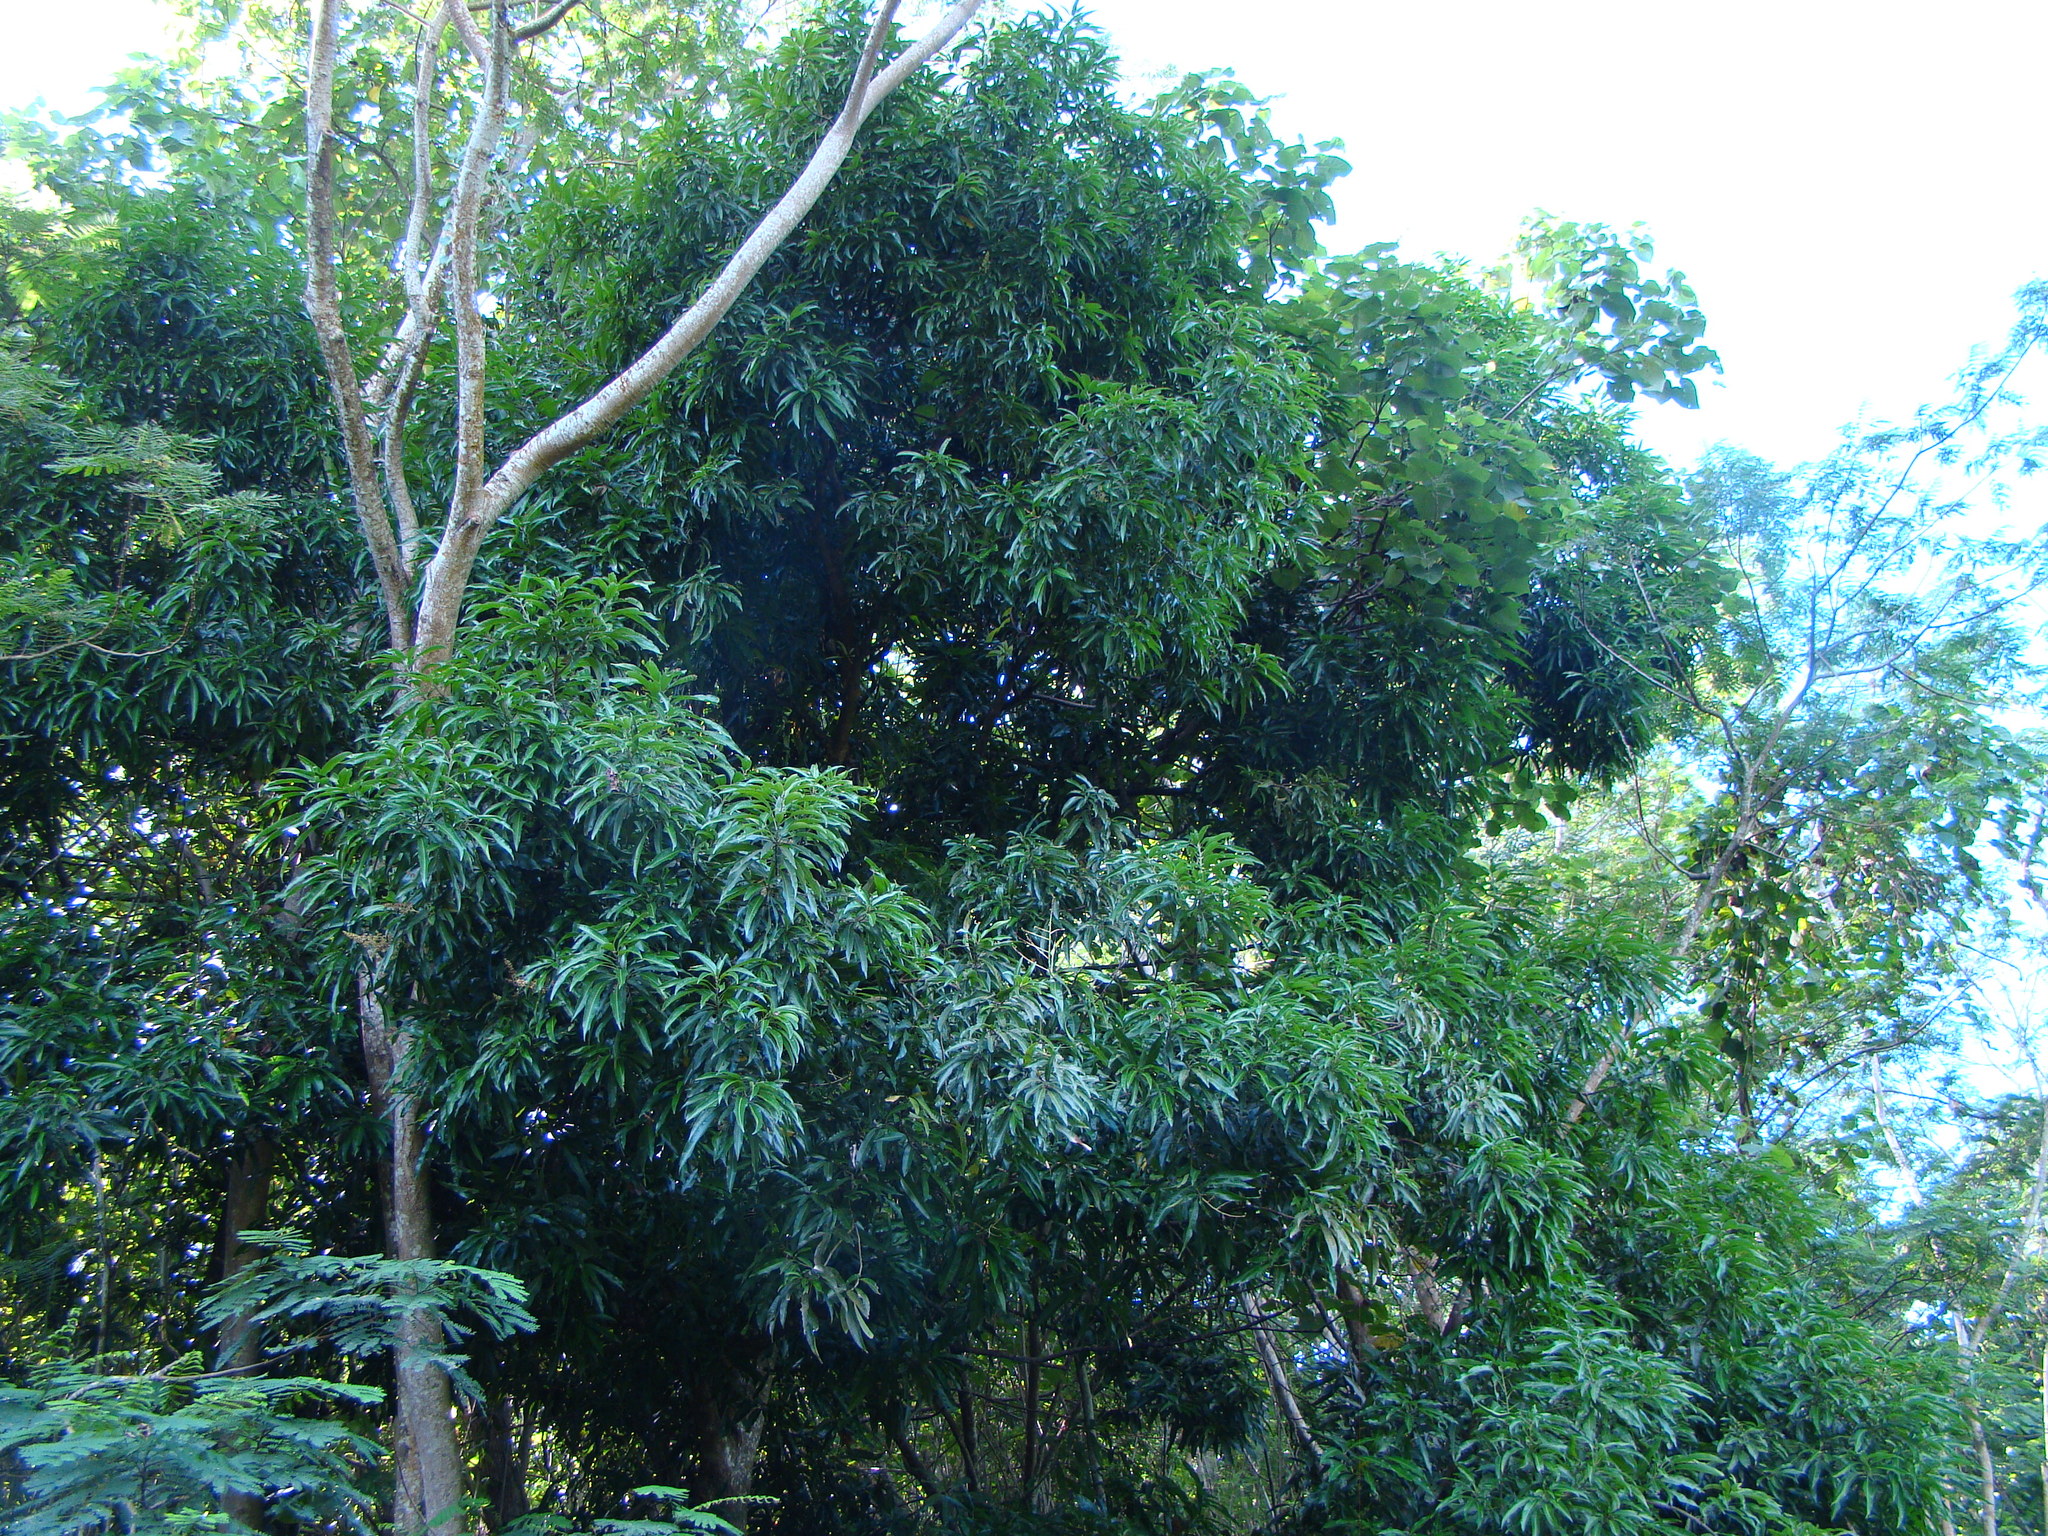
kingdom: Plantae
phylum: Tracheophyta
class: Magnoliopsida
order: Sapindales
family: Anacardiaceae
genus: Mangifera
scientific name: Mangifera indica
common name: Mango
